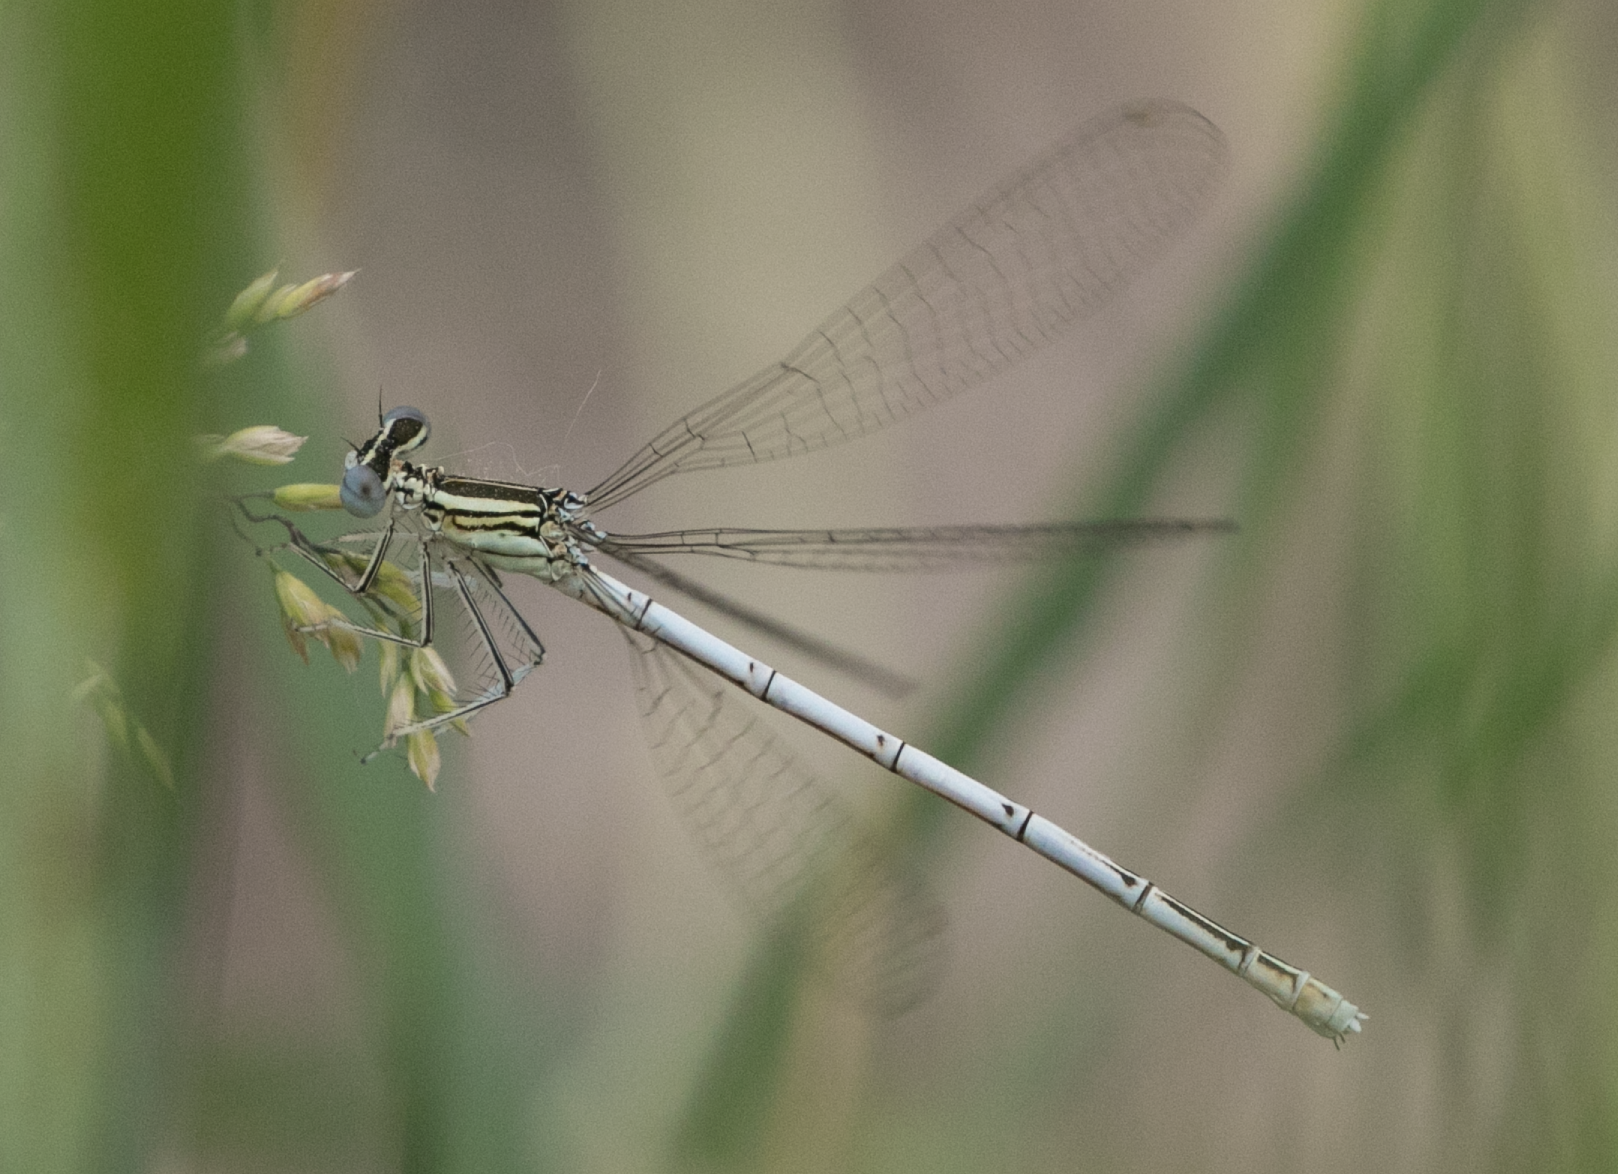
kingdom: Animalia
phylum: Arthropoda
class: Insecta
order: Odonata
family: Platycnemididae
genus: Platycnemis
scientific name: Platycnemis pennipes
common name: White-legged damselfly
